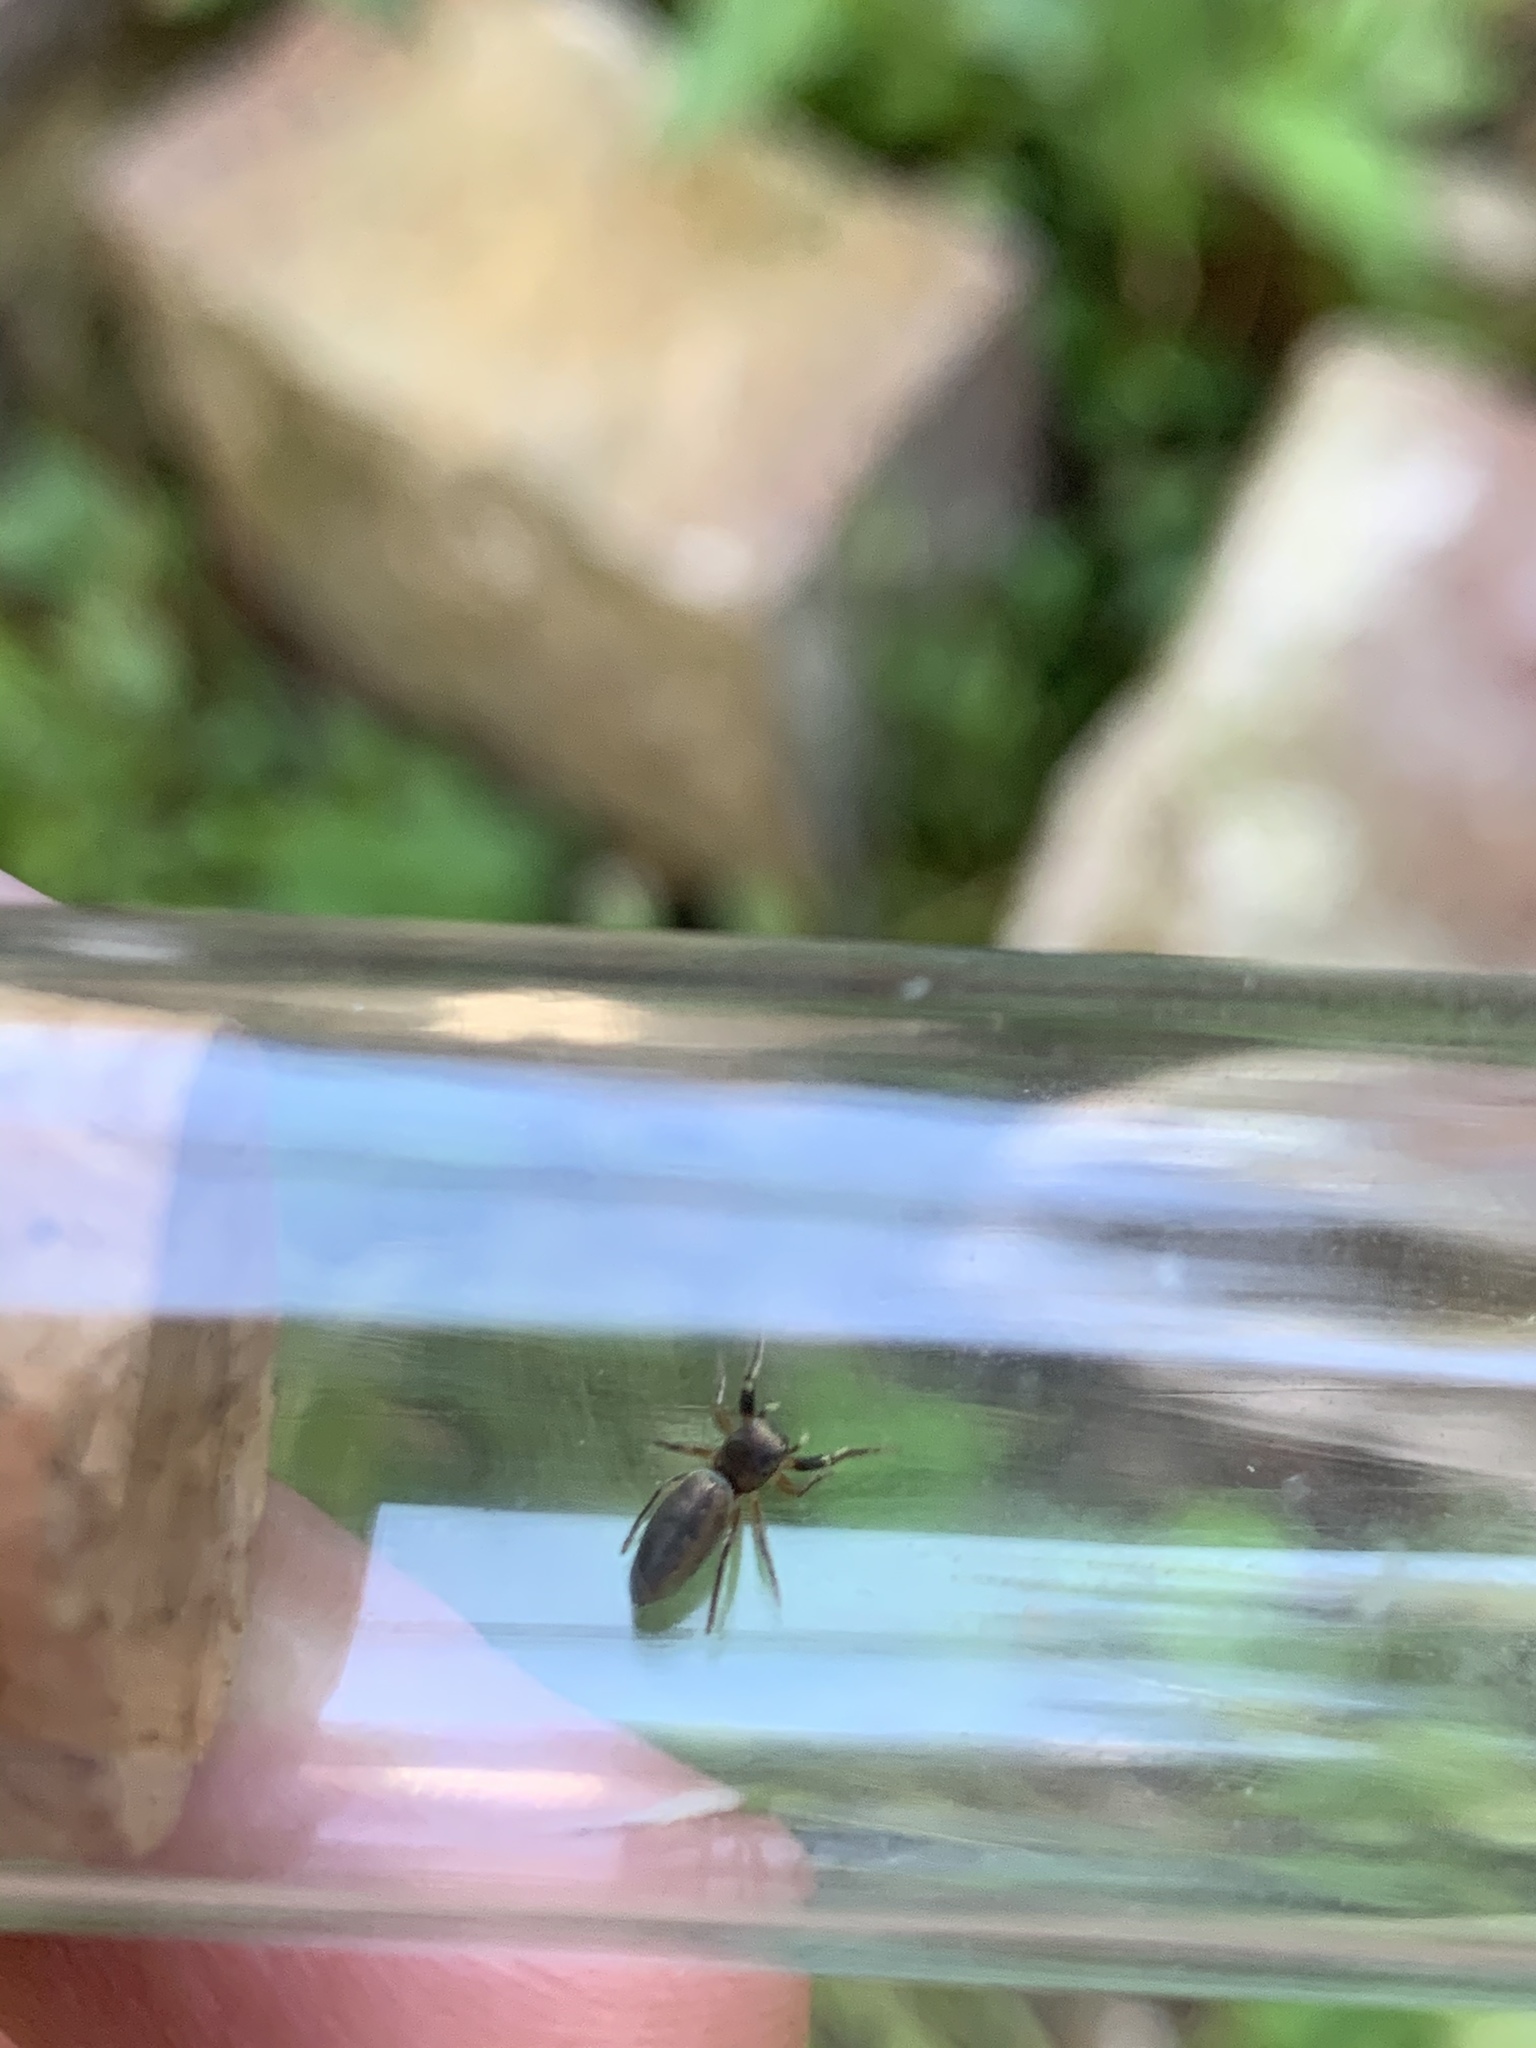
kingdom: Animalia
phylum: Arthropoda
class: Arachnida
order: Araneae
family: Salticidae
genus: Tutelina
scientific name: Tutelina elegans
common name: Thin-spined jumping spider
